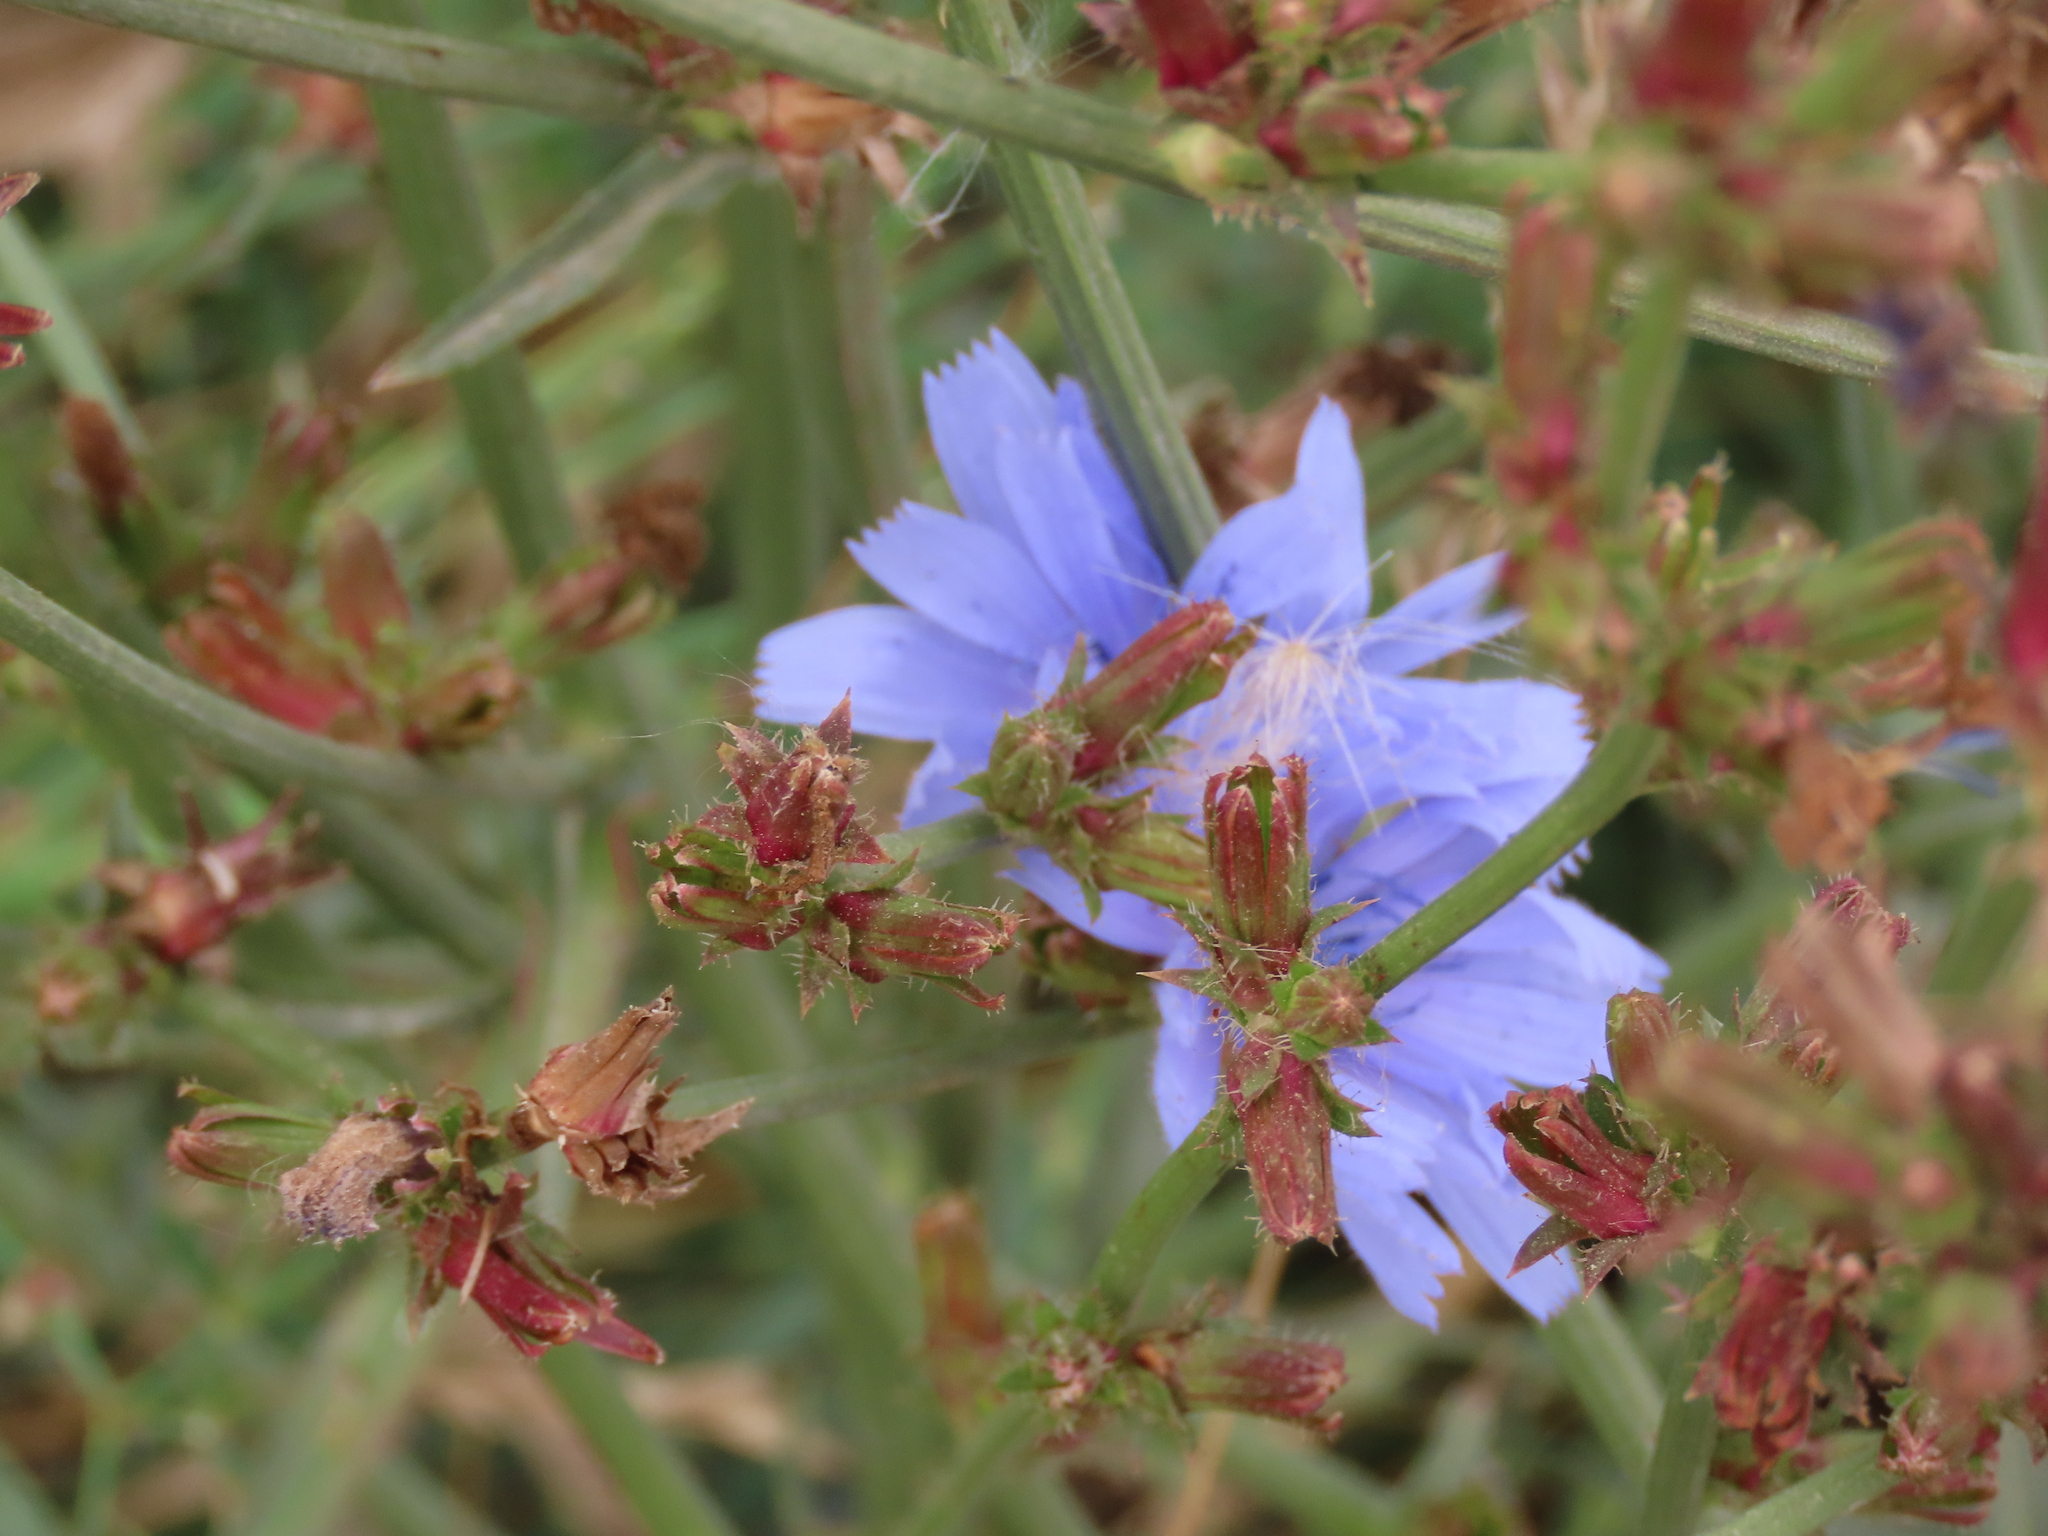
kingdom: Plantae
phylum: Tracheophyta
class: Magnoliopsida
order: Asterales
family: Asteraceae
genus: Cichorium
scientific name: Cichorium intybus
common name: Chicory
